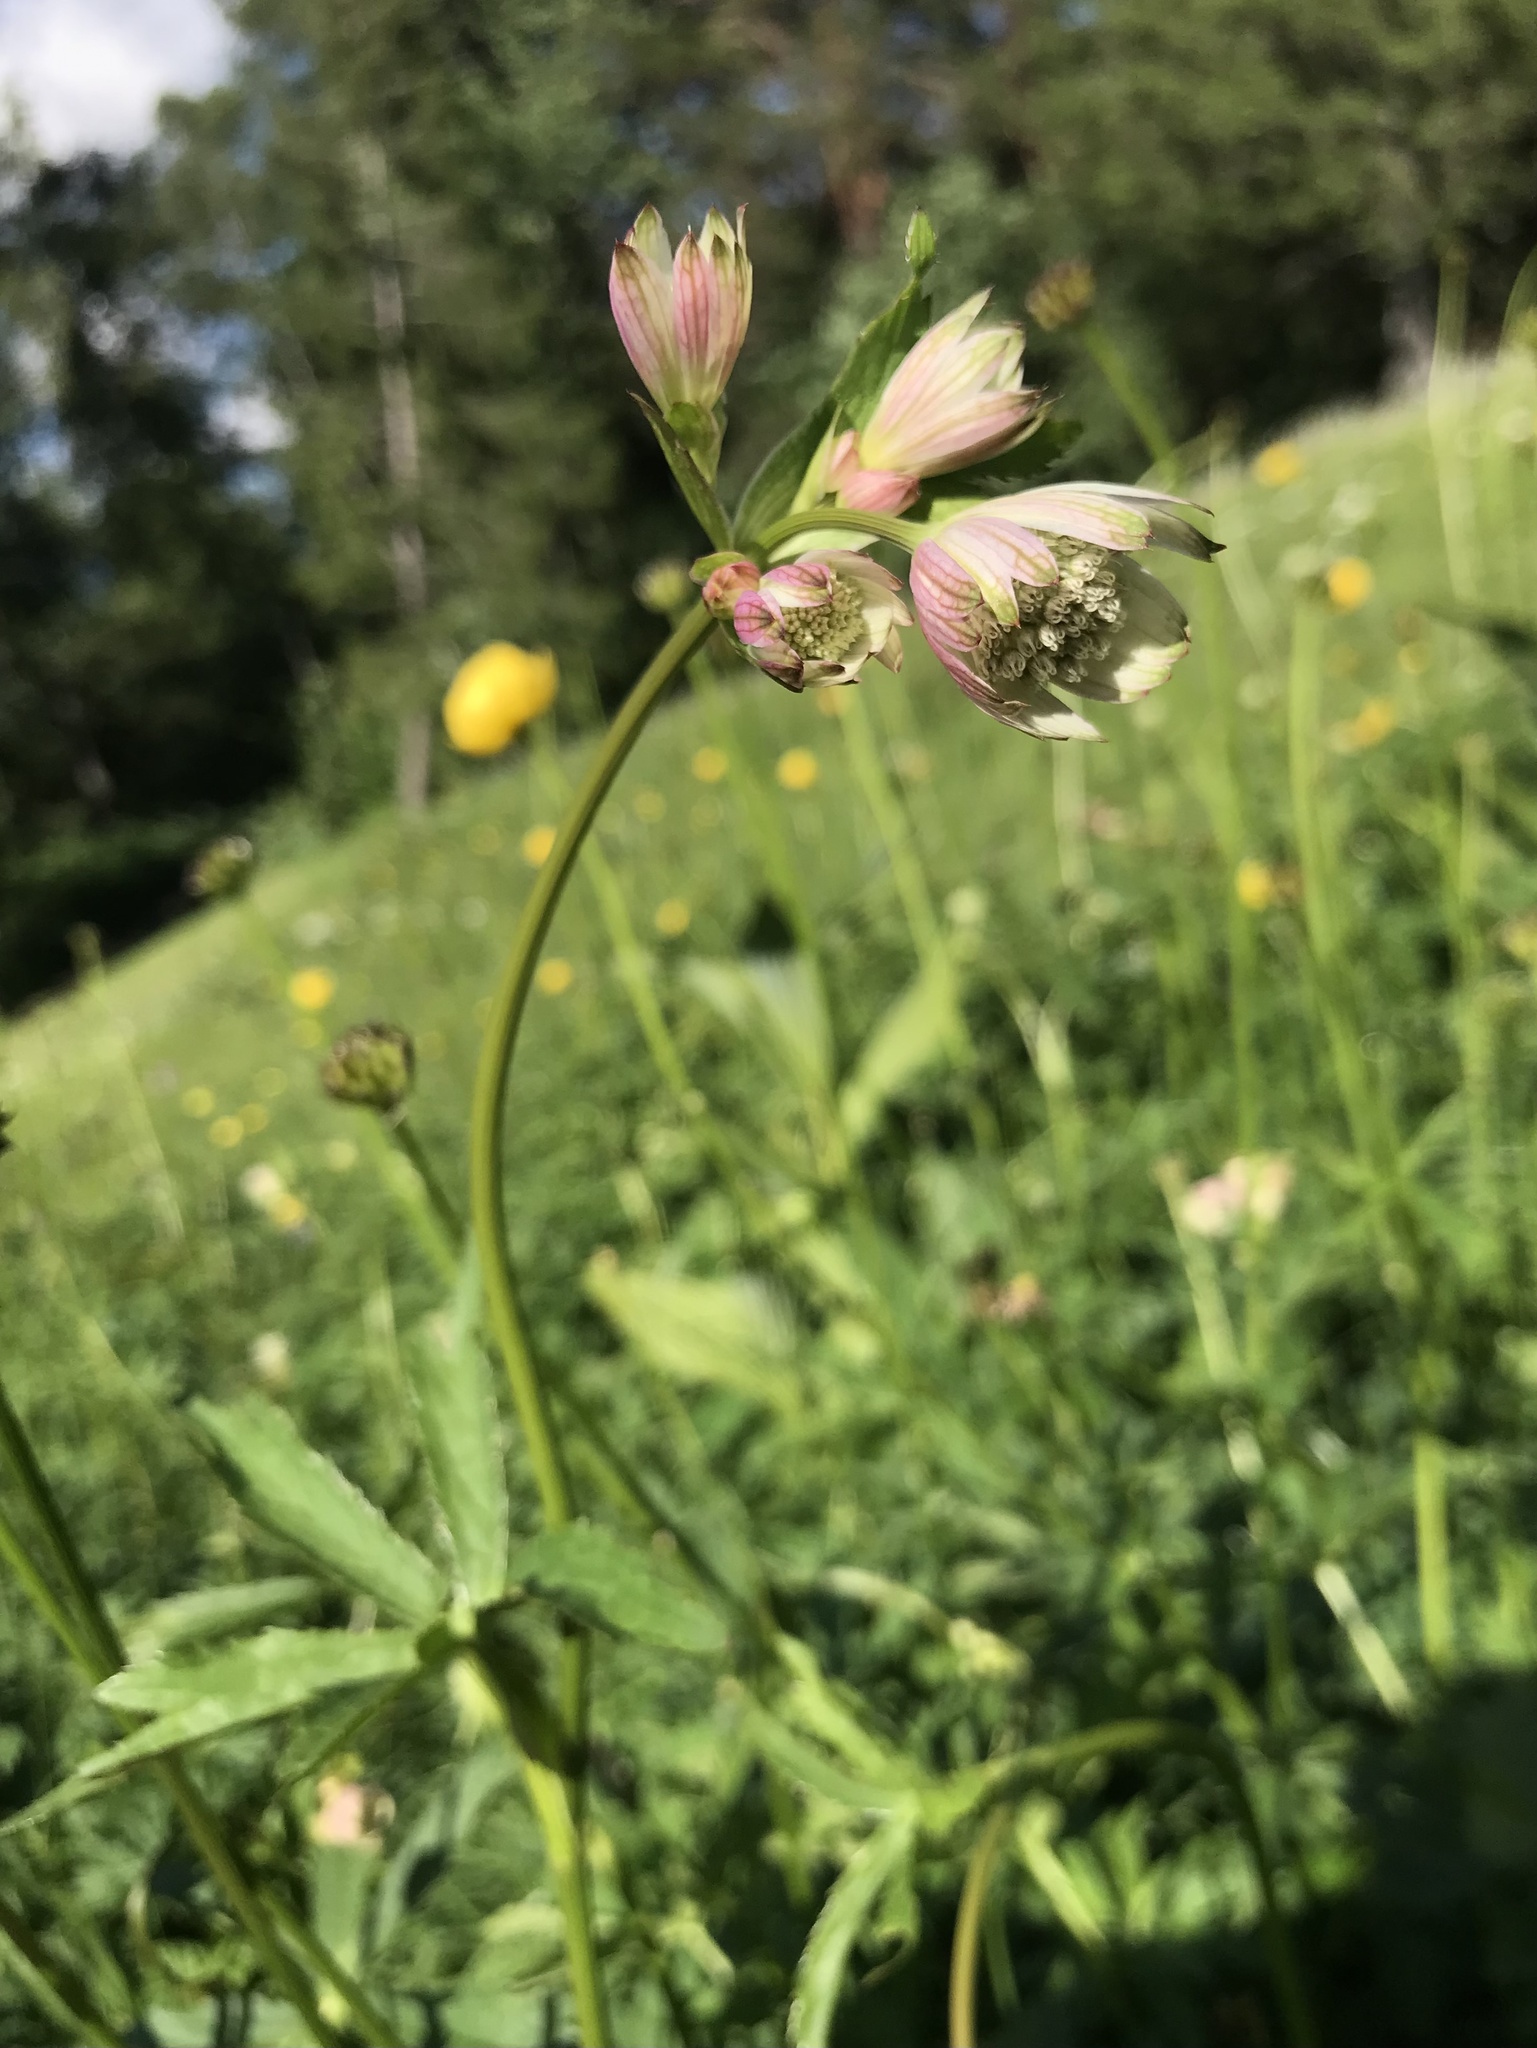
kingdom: Plantae
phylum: Tracheophyta
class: Magnoliopsida
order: Apiales
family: Apiaceae
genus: Astrantia
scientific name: Astrantia major
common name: Greater masterwort
